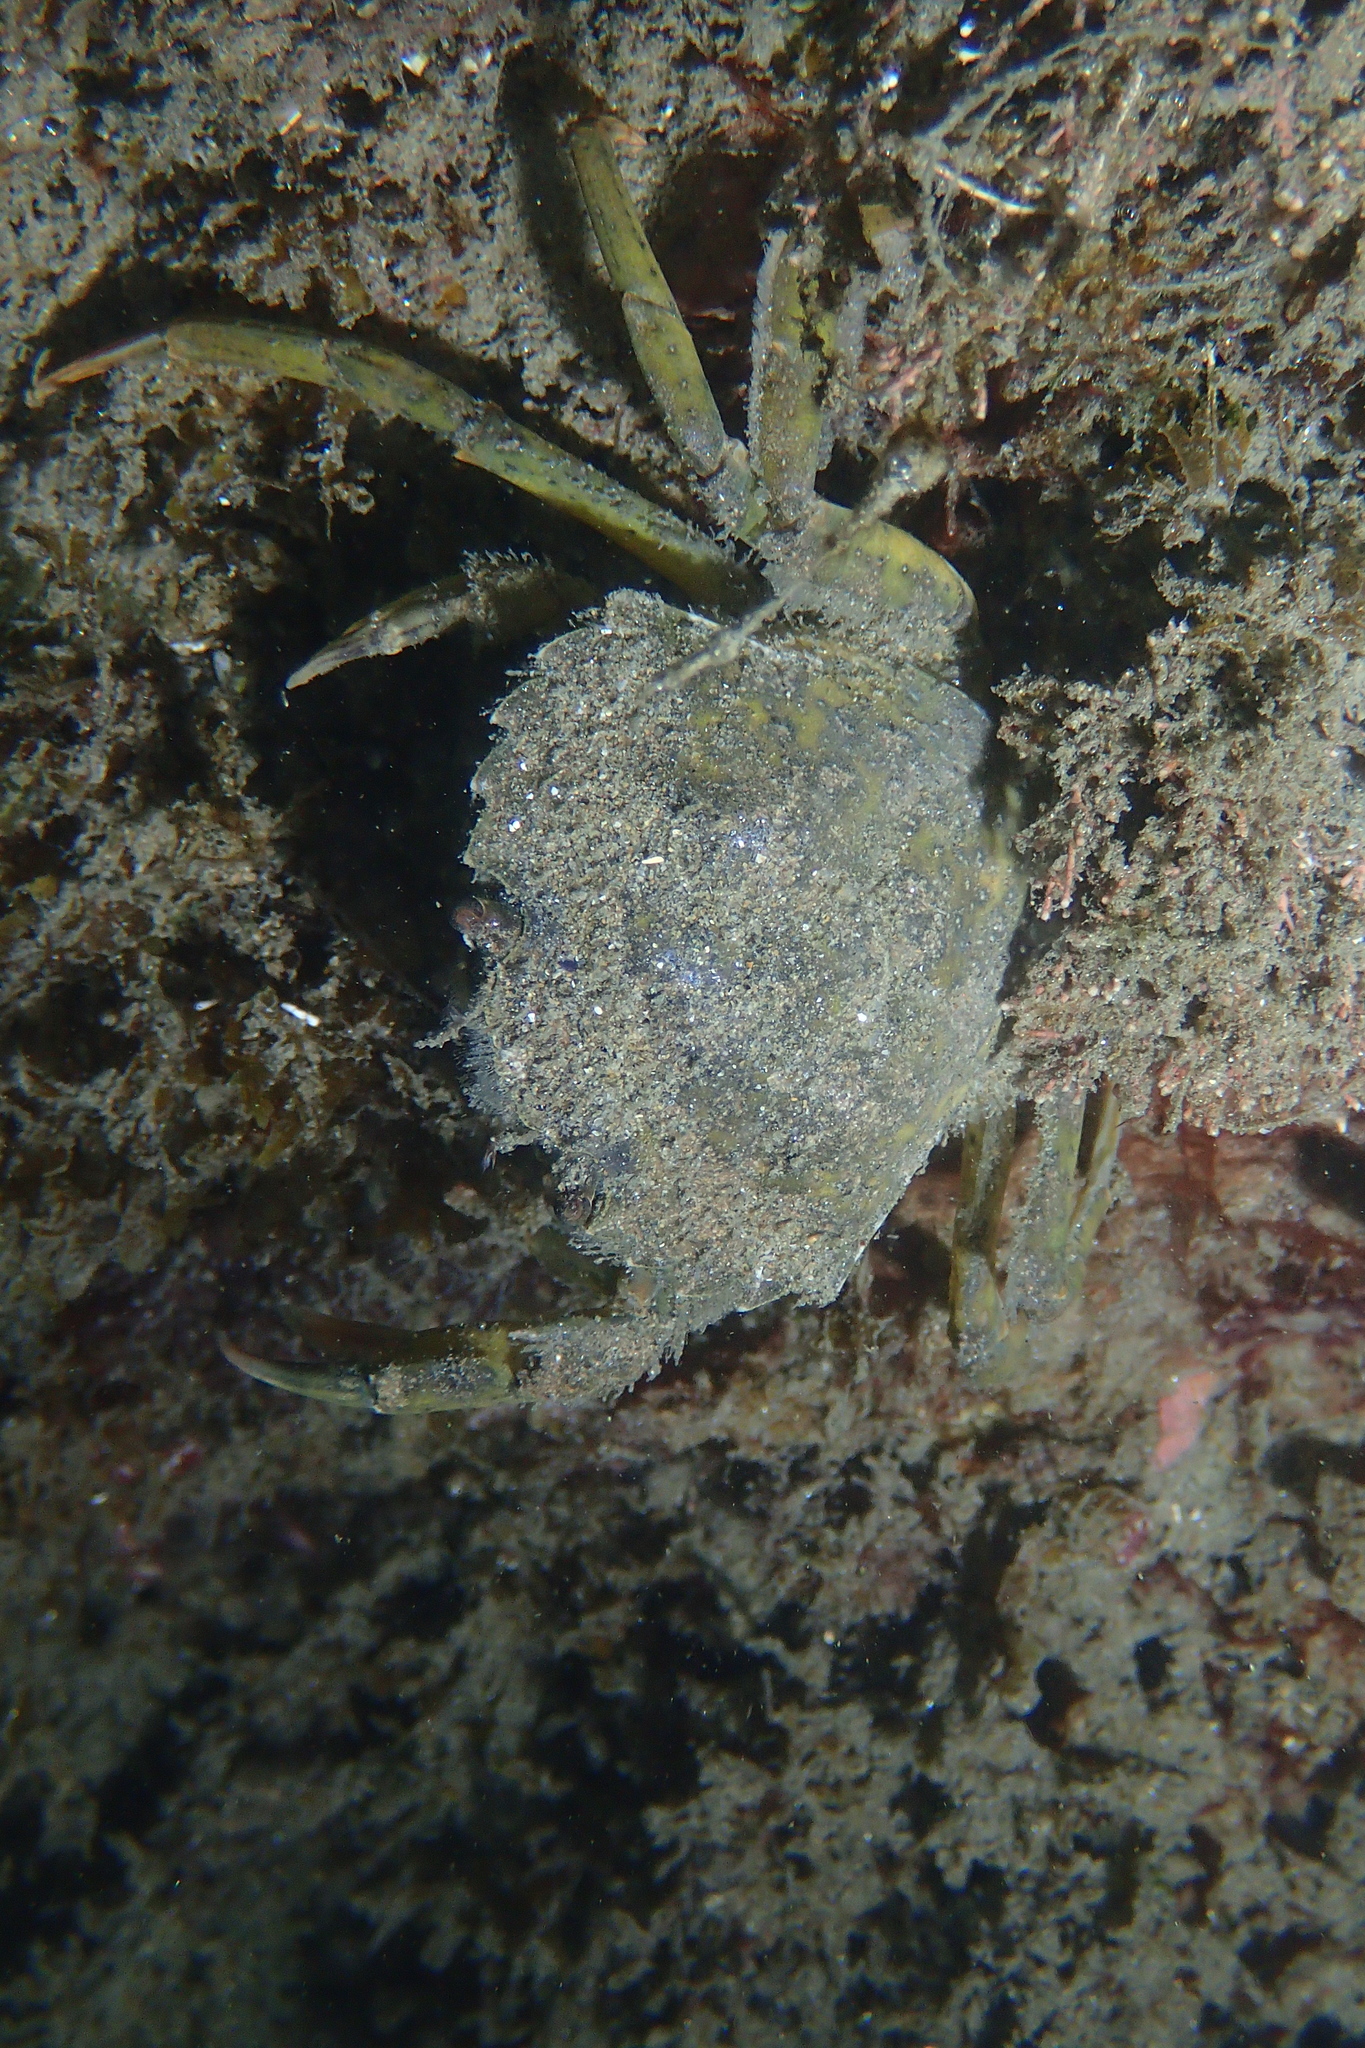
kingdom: Animalia
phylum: Arthropoda
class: Malacostraca
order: Decapoda
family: Carcinidae
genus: Carcinus
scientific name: Carcinus aestuarii
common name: Mediterranean green crab
